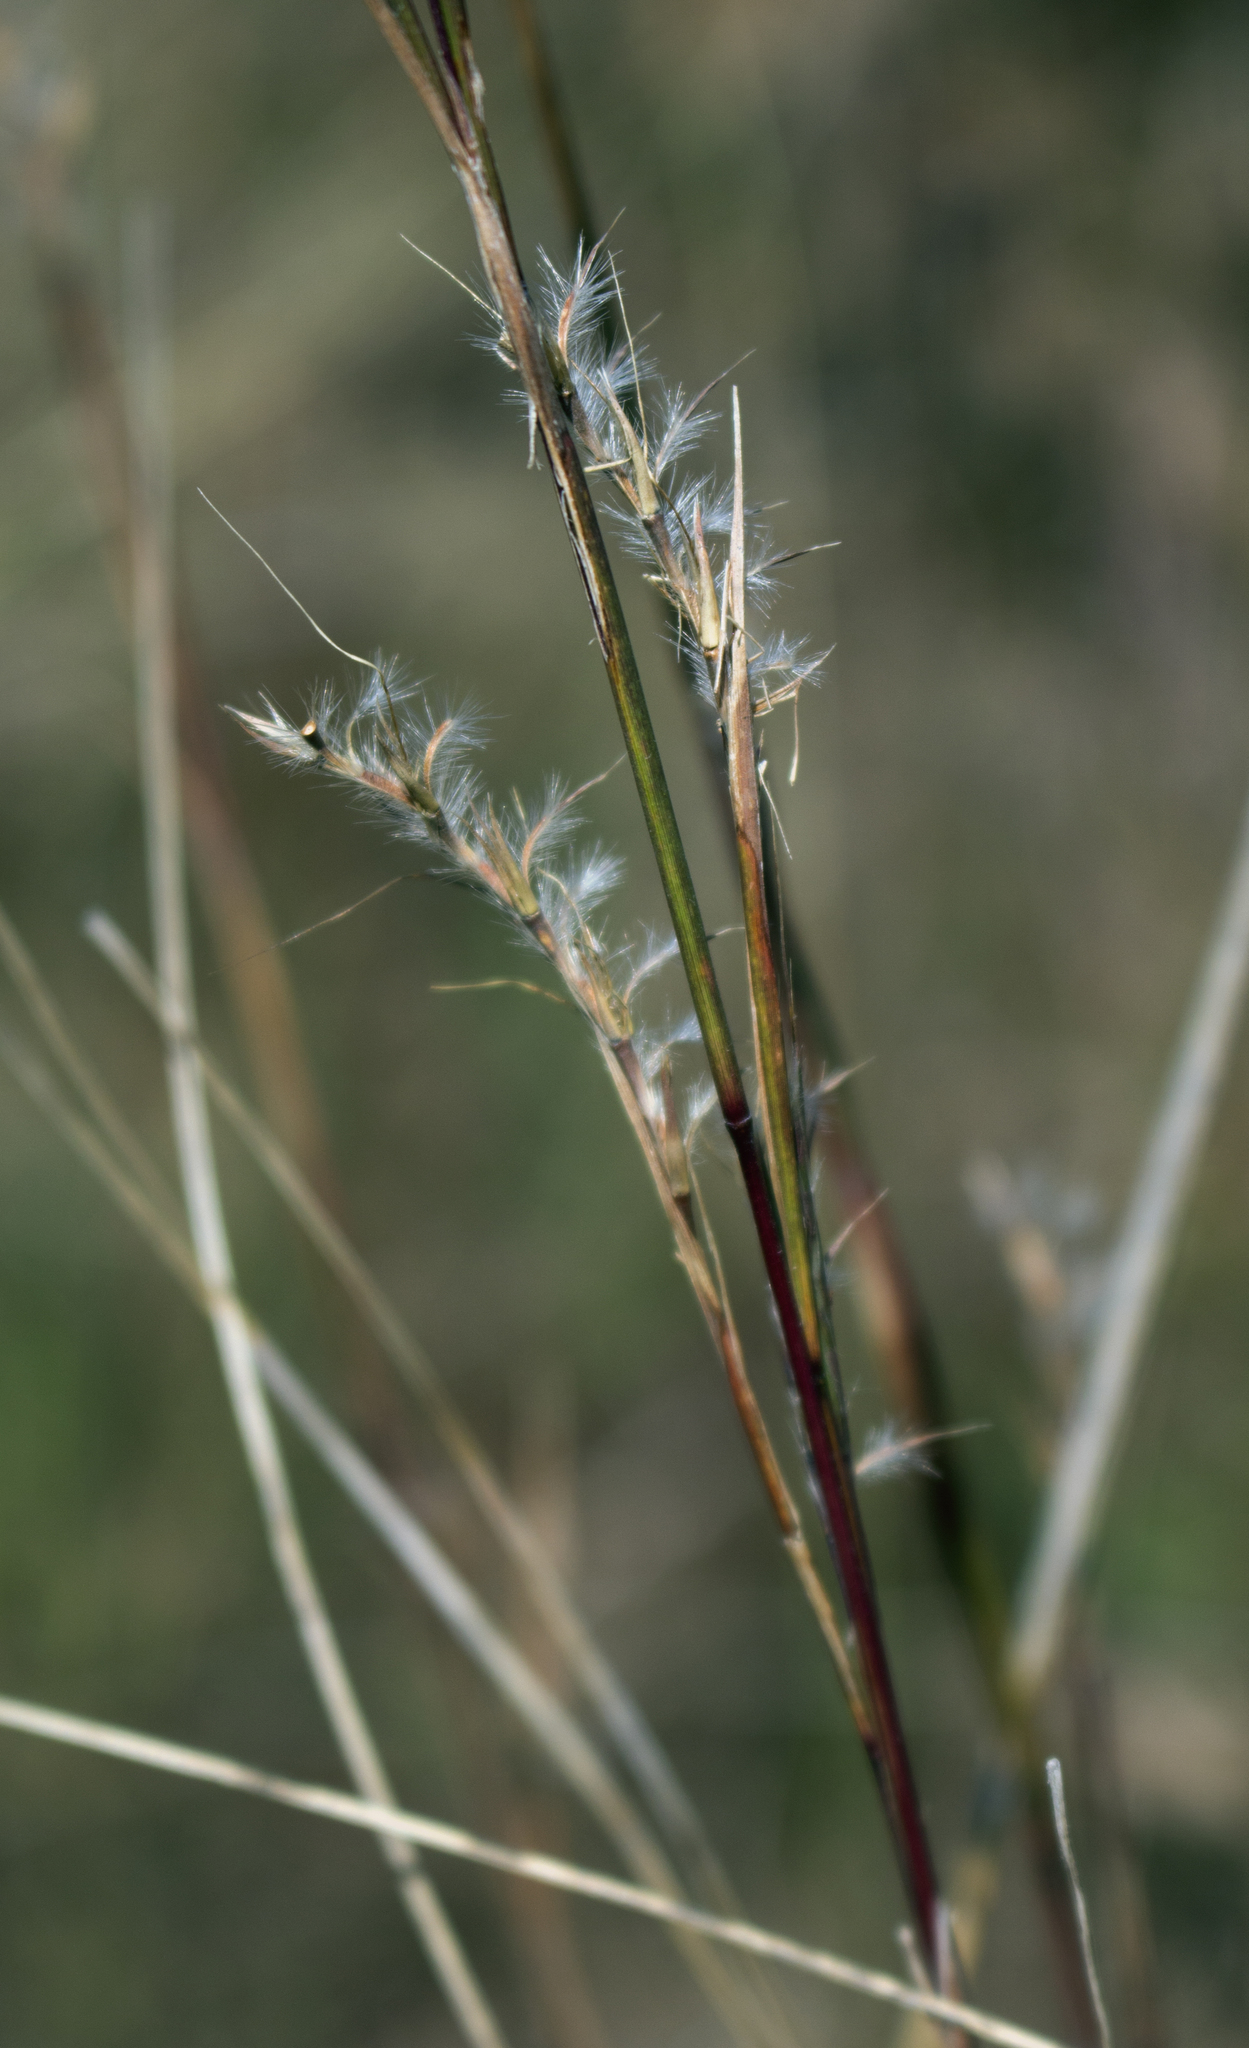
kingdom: Plantae
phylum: Tracheophyta
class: Liliopsida
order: Poales
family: Poaceae
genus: Schizachyrium
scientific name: Schizachyrium scoparium
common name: Little bluestem
